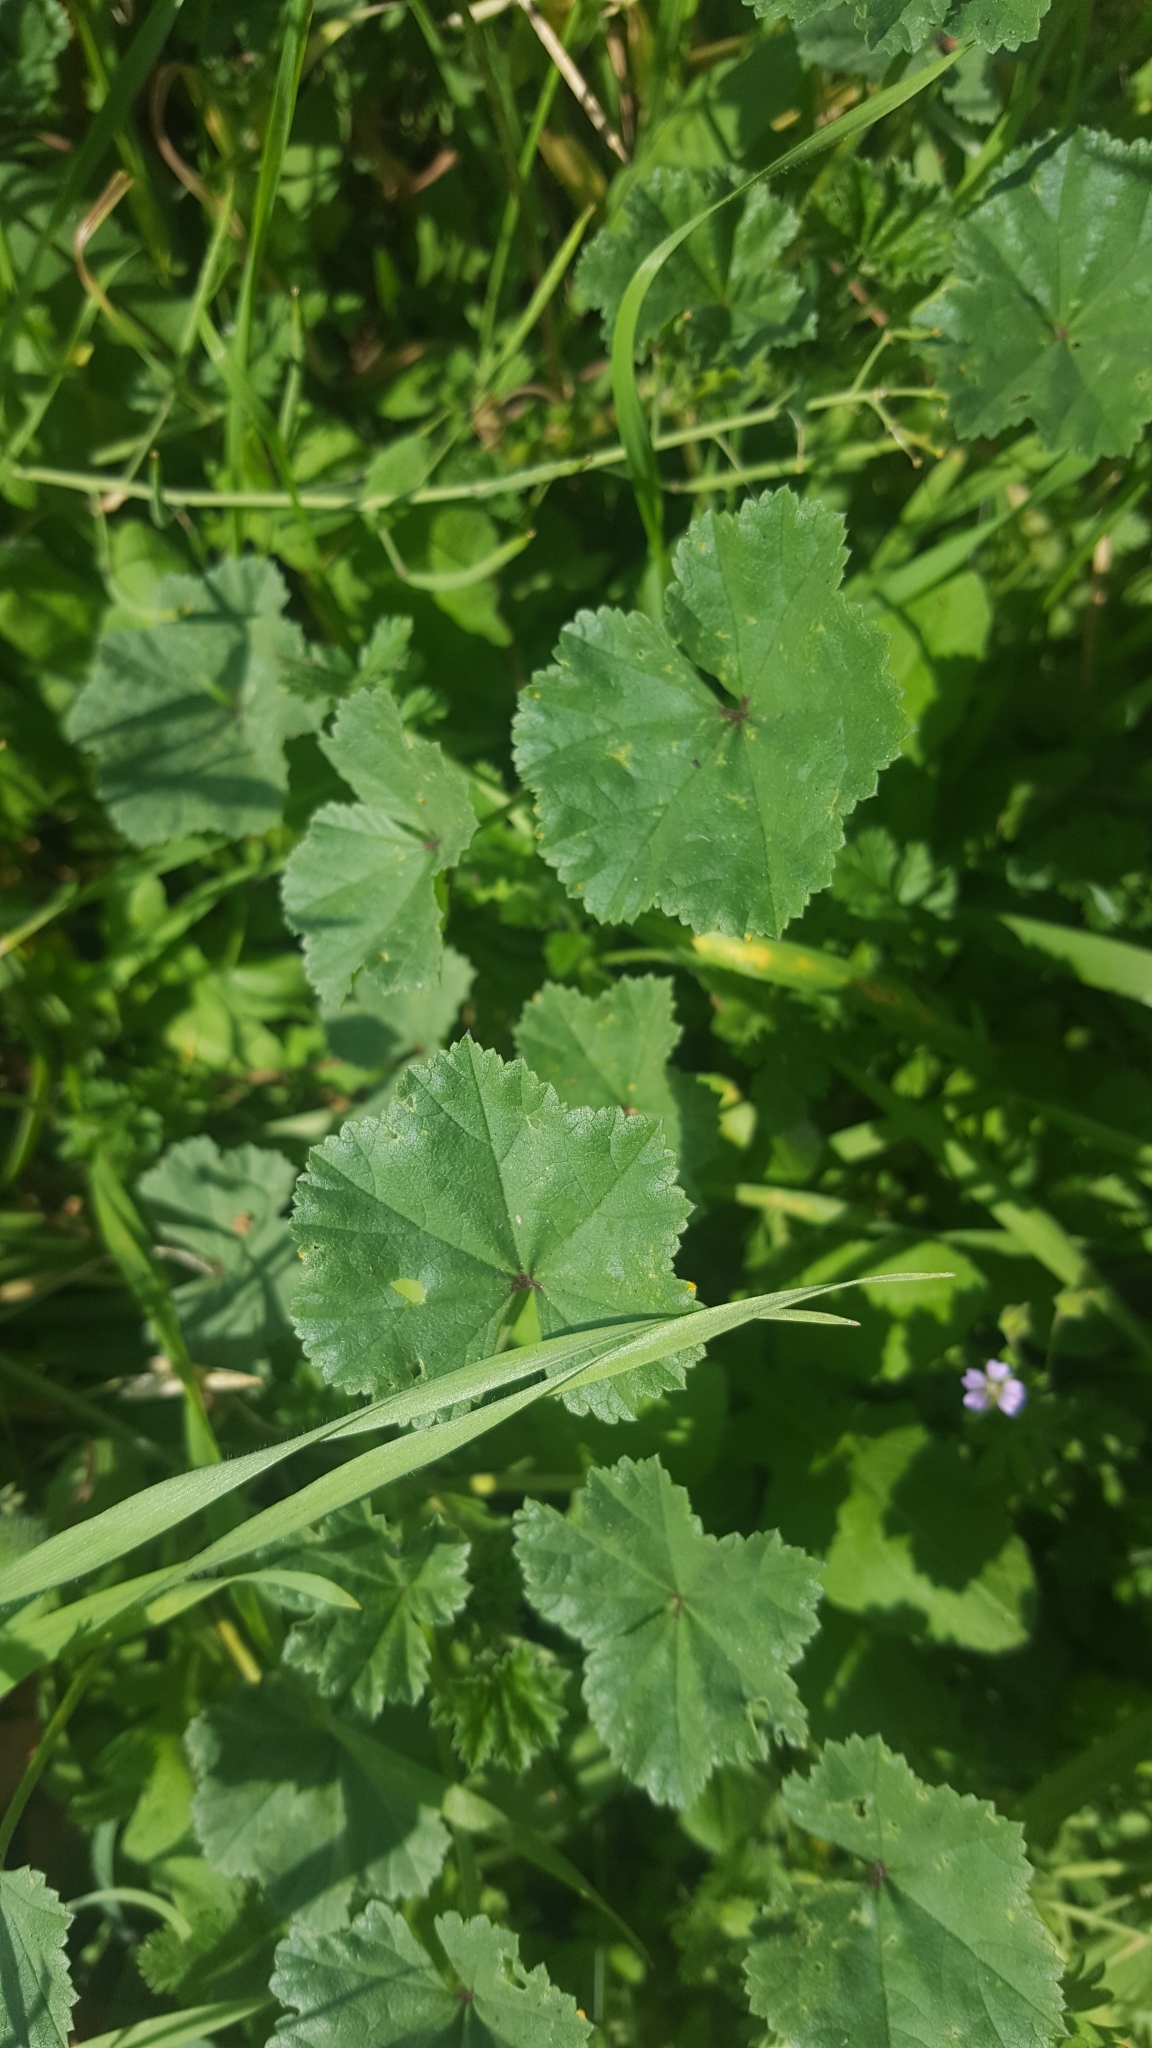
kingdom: Plantae
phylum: Tracheophyta
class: Magnoliopsida
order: Malvales
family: Malvaceae
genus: Malva
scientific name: Malva neglecta
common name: Common mallow
